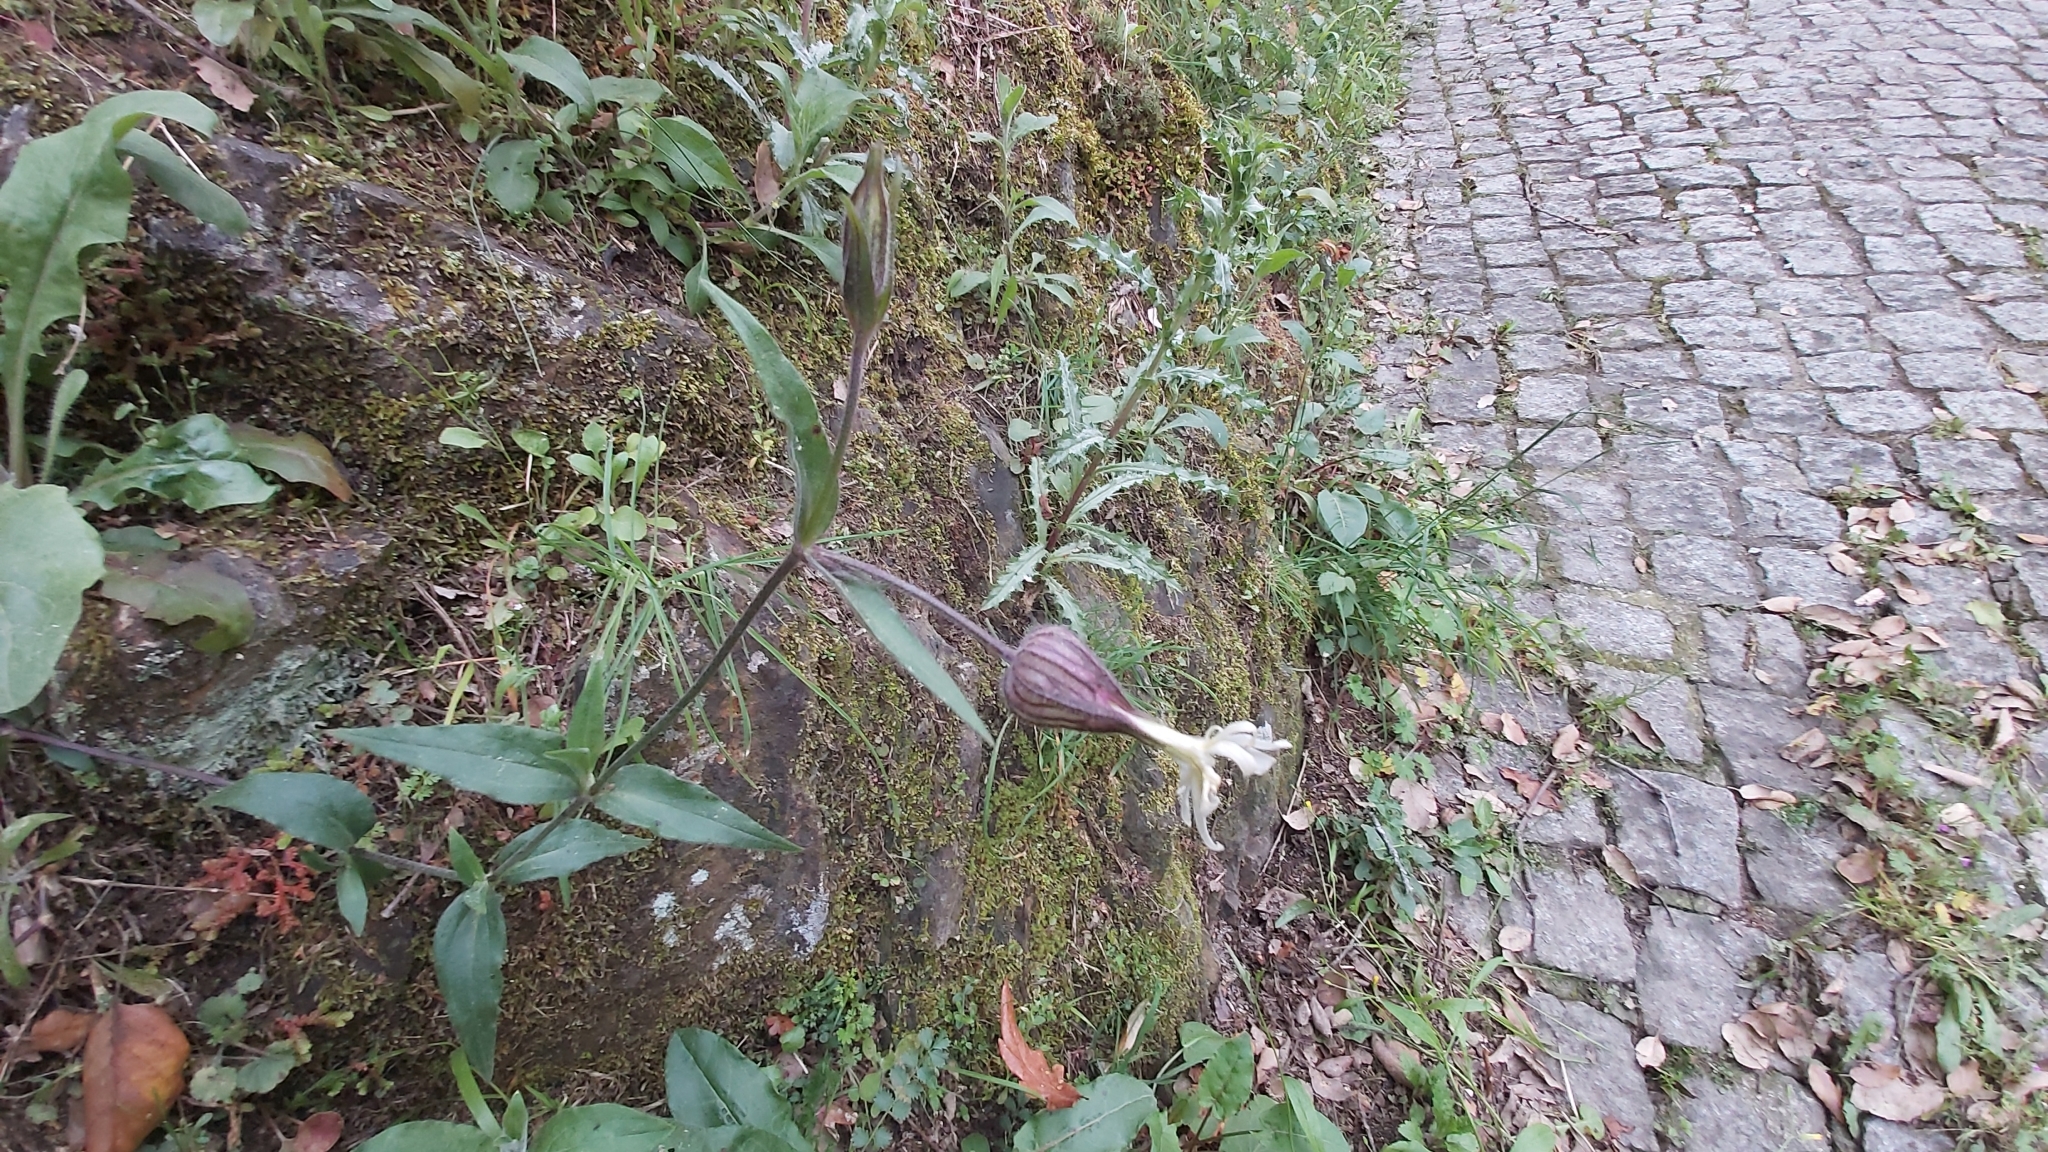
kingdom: Plantae
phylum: Tracheophyta
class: Magnoliopsida
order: Caryophyllales
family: Caryophyllaceae
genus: Silene
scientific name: Silene latifolia
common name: White campion
